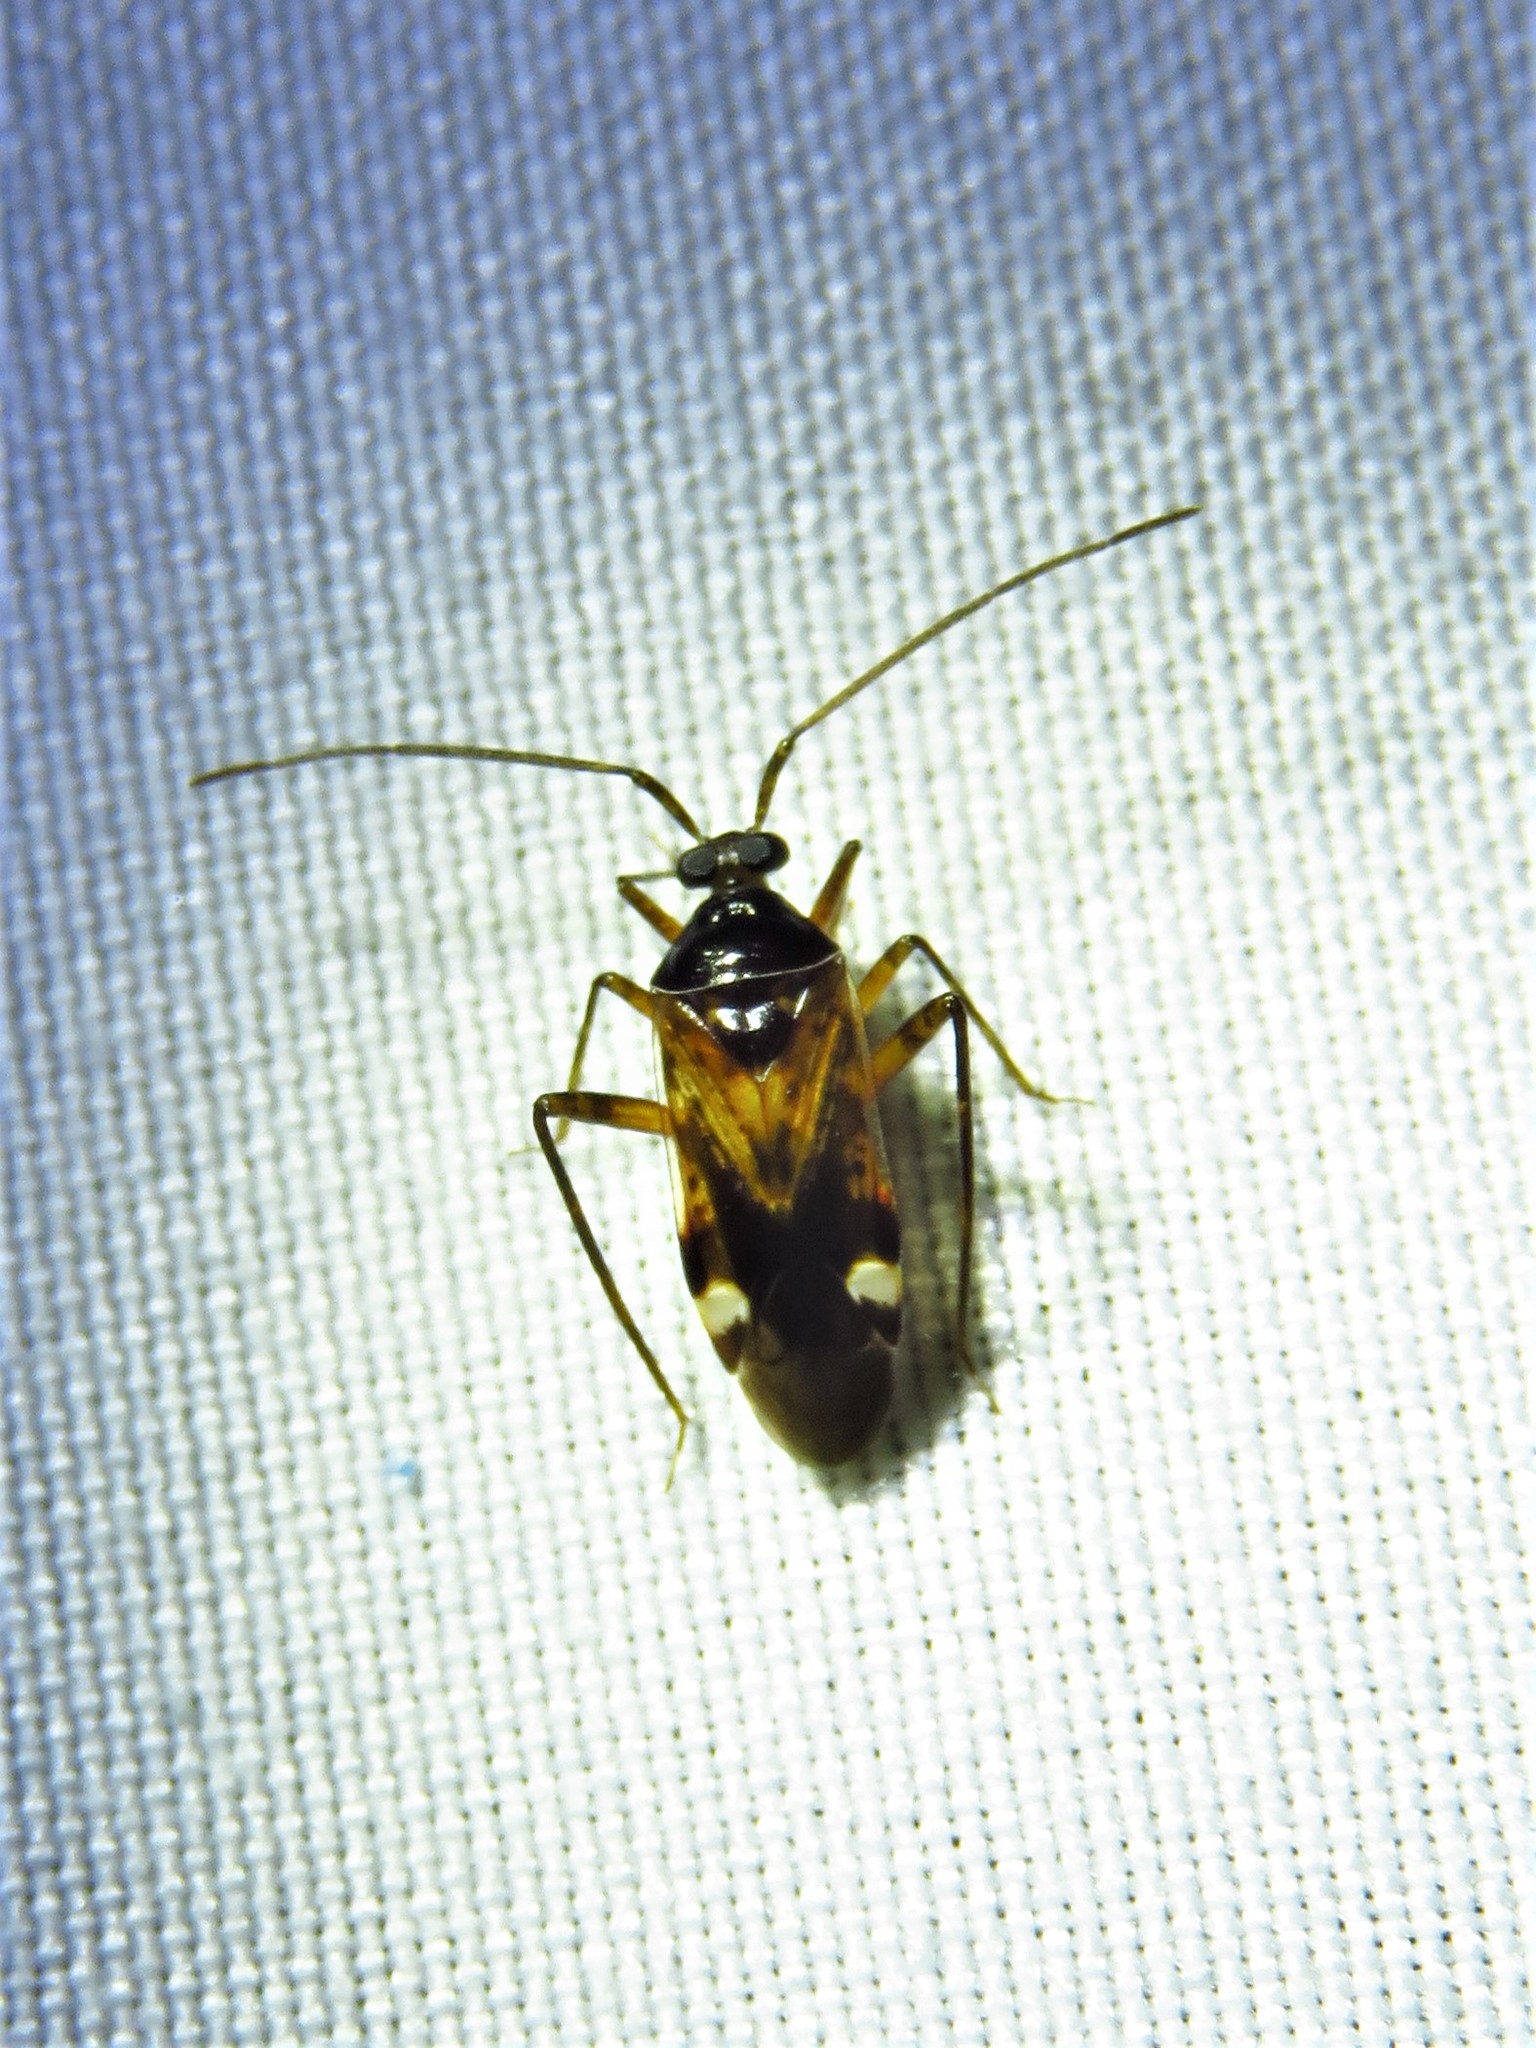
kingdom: Animalia
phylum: Arthropoda
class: Insecta
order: Hemiptera
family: Miridae
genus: Eustictus
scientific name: Eustictus knighti
